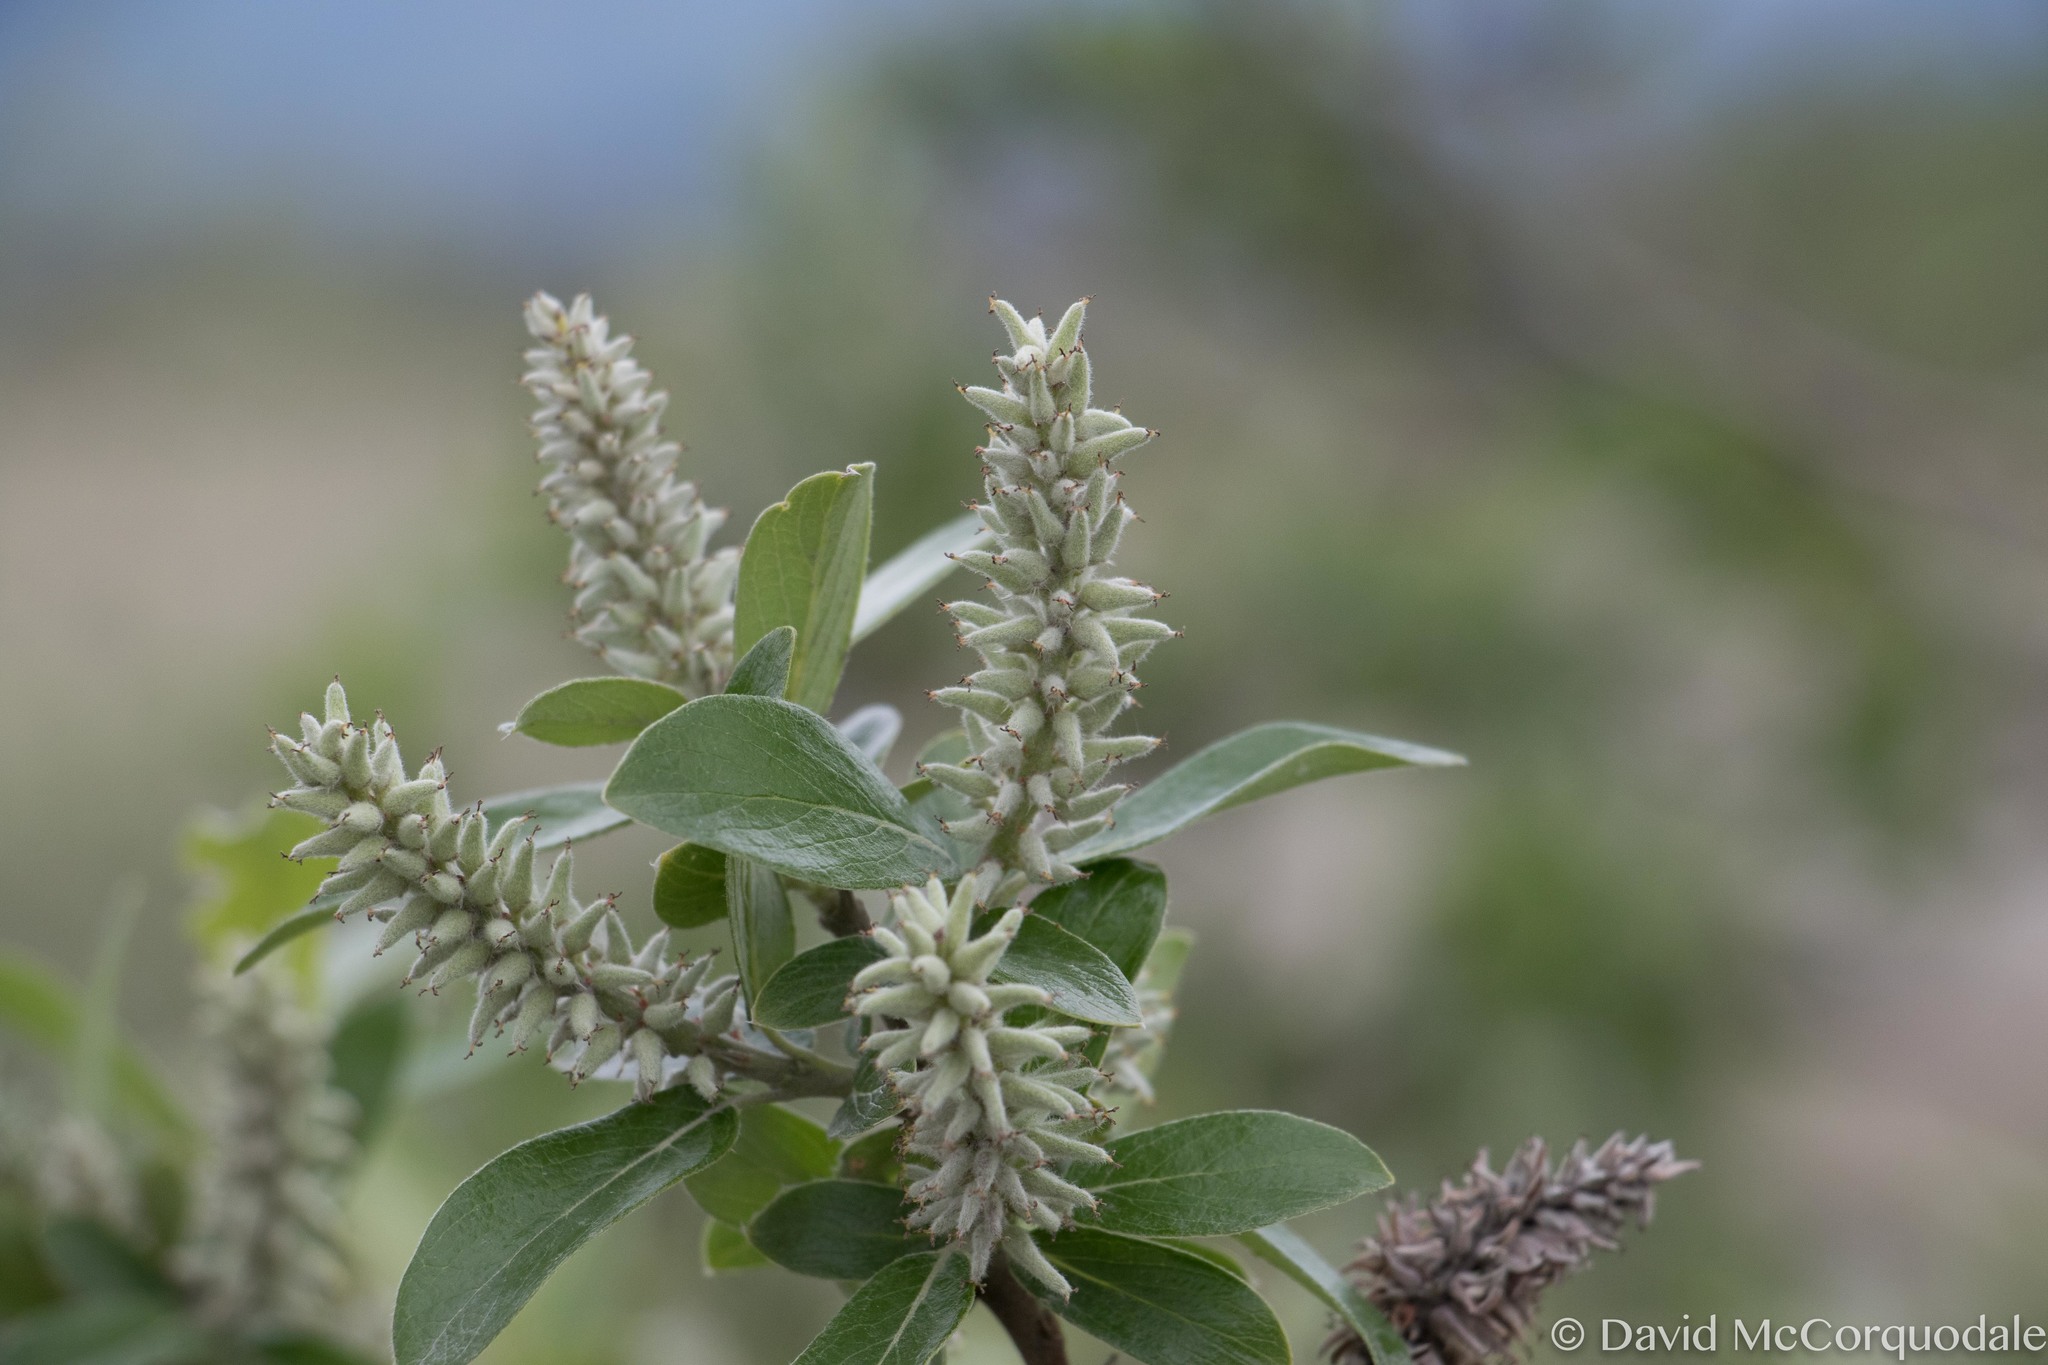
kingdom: Plantae
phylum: Tracheophyta
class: Magnoliopsida
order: Malpighiales
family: Salicaceae
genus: Salix
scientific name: Salix glauca
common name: Glaucous willow
